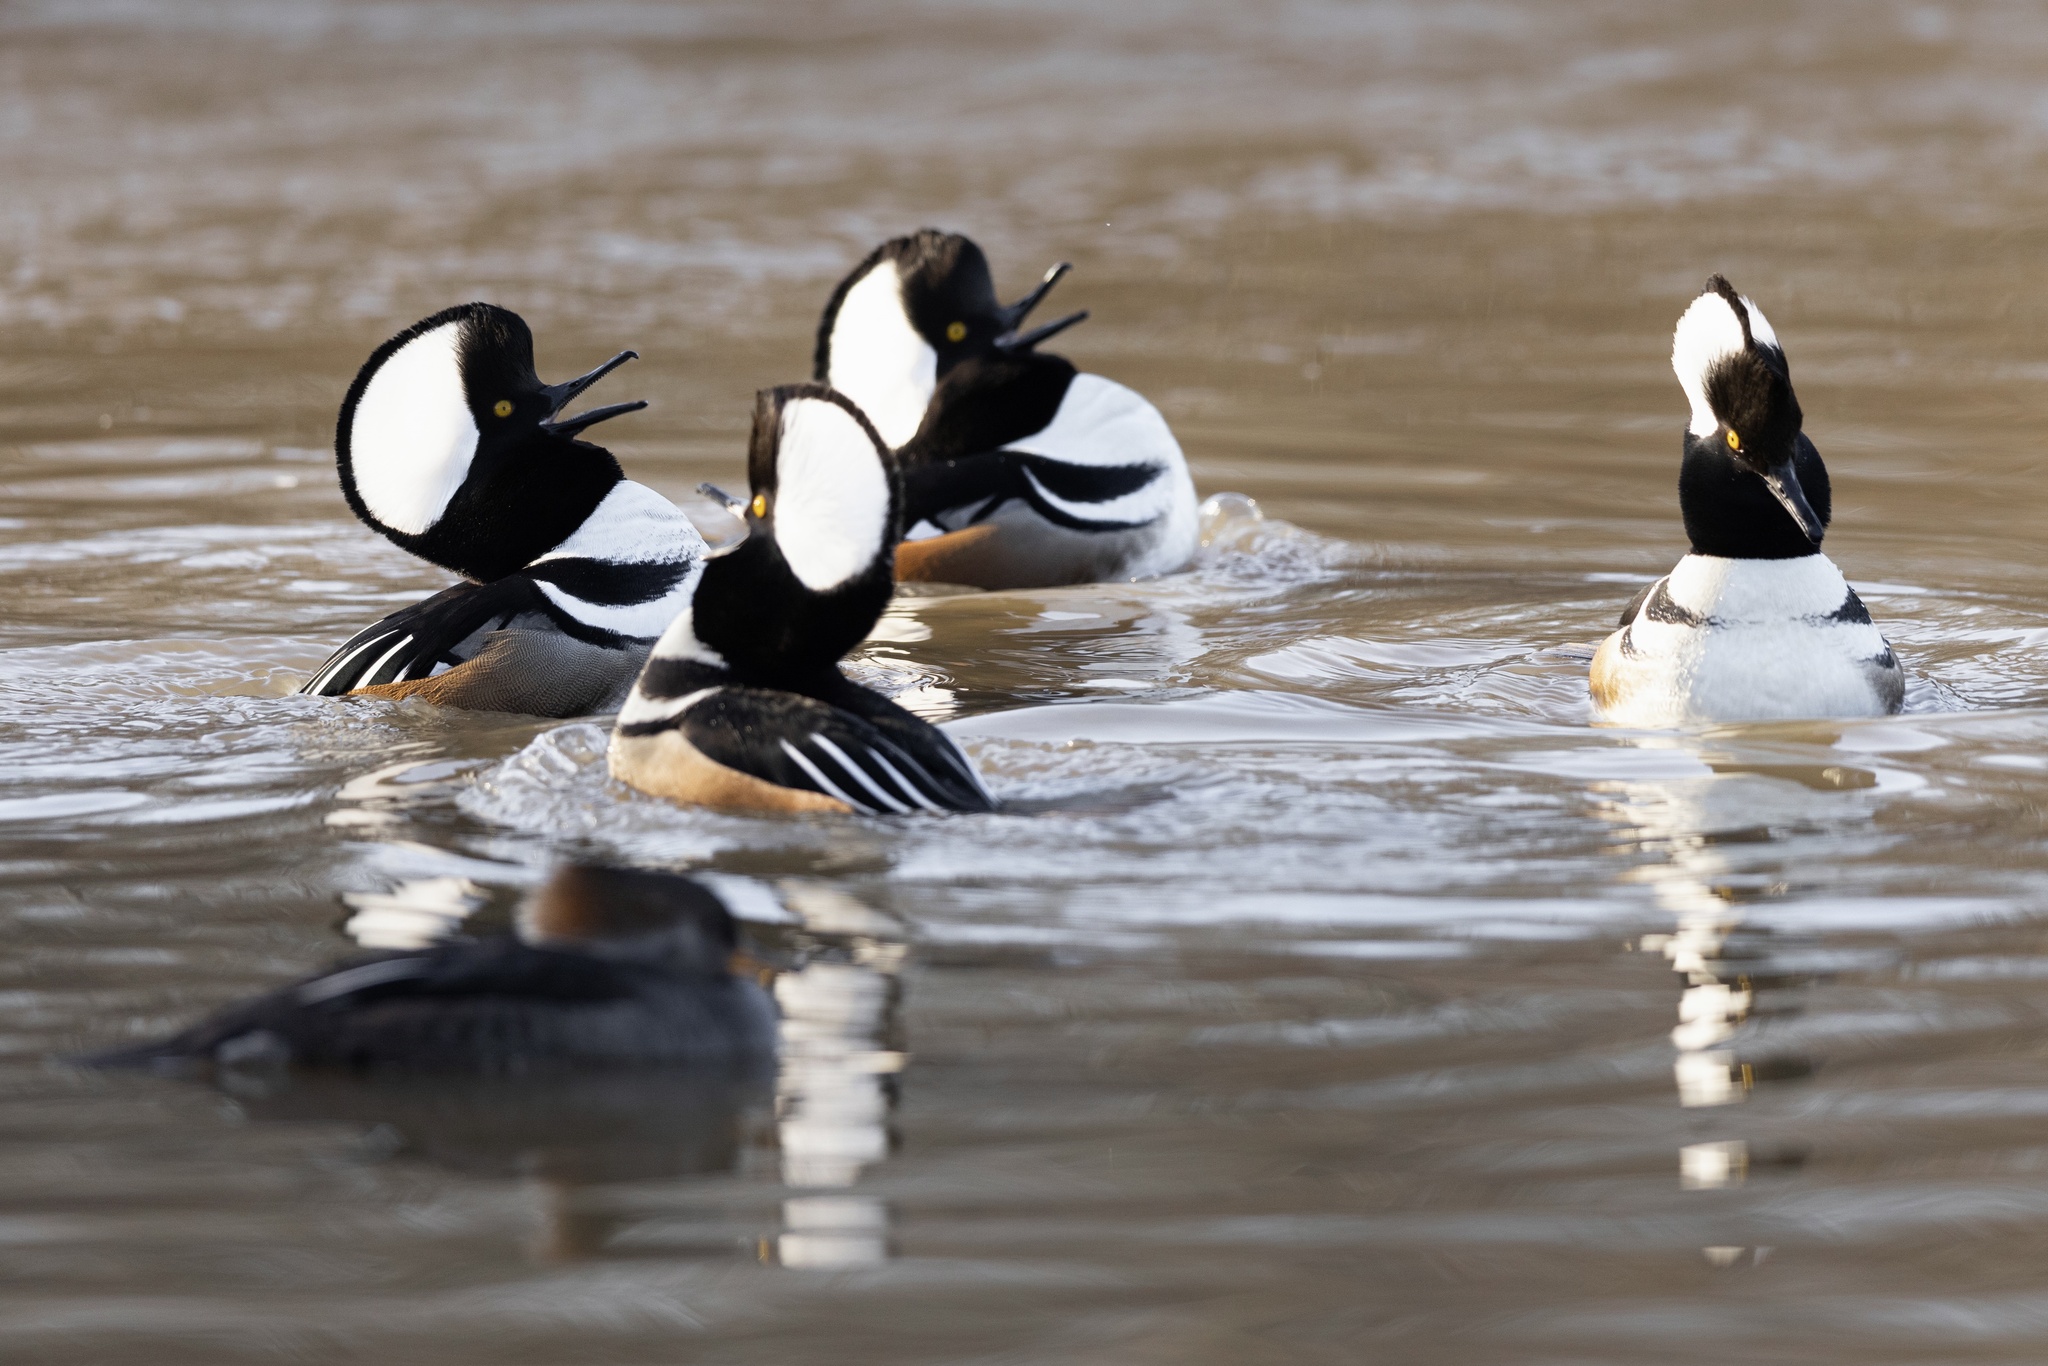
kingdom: Animalia
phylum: Chordata
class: Aves
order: Anseriformes
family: Anatidae
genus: Lophodytes
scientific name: Lophodytes cucullatus
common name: Hooded merganser
